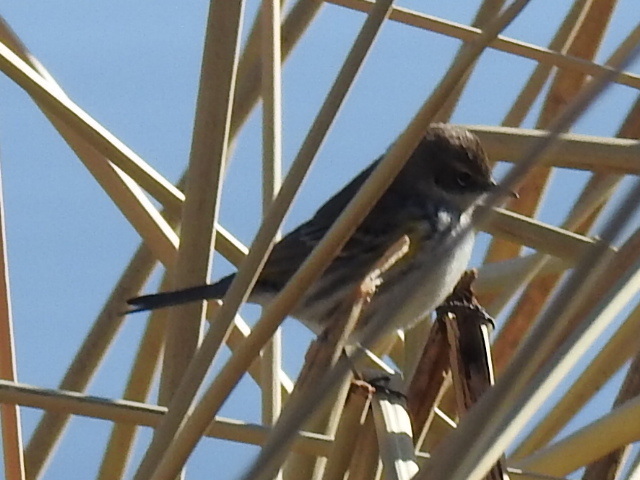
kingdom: Animalia
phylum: Chordata
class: Aves
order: Passeriformes
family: Parulidae
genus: Setophaga
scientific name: Setophaga coronata
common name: Myrtle warbler
